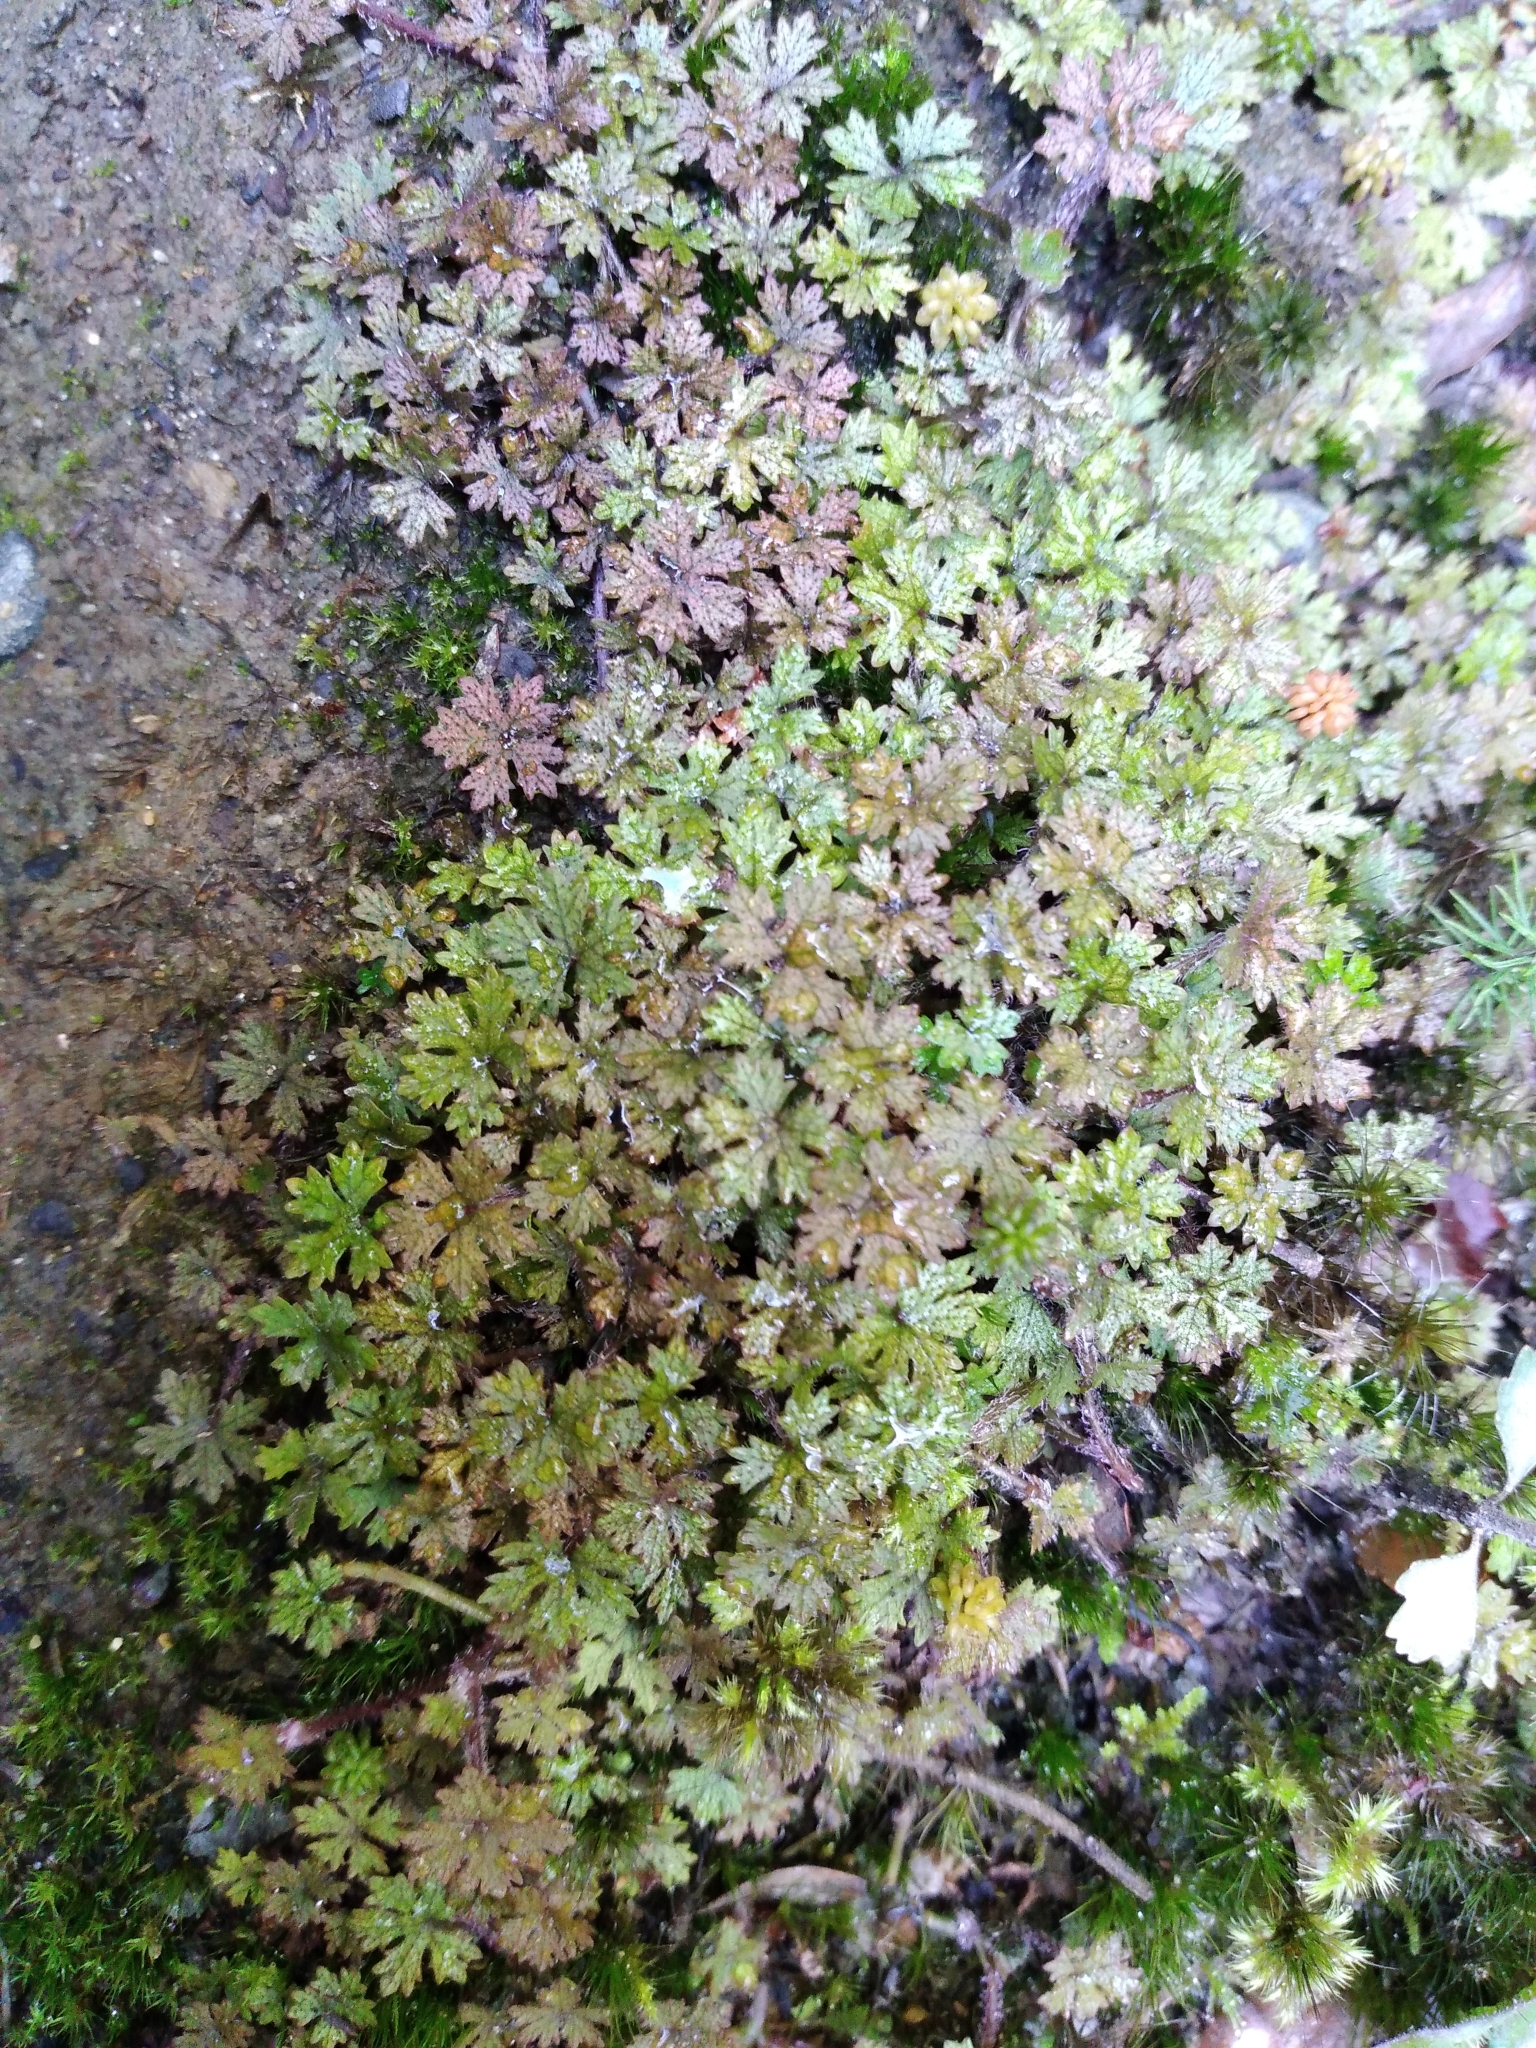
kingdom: Plantae
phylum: Tracheophyta
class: Magnoliopsida
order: Apiales
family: Araliaceae
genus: Hydrocotyle
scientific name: Hydrocotyle dissecta
